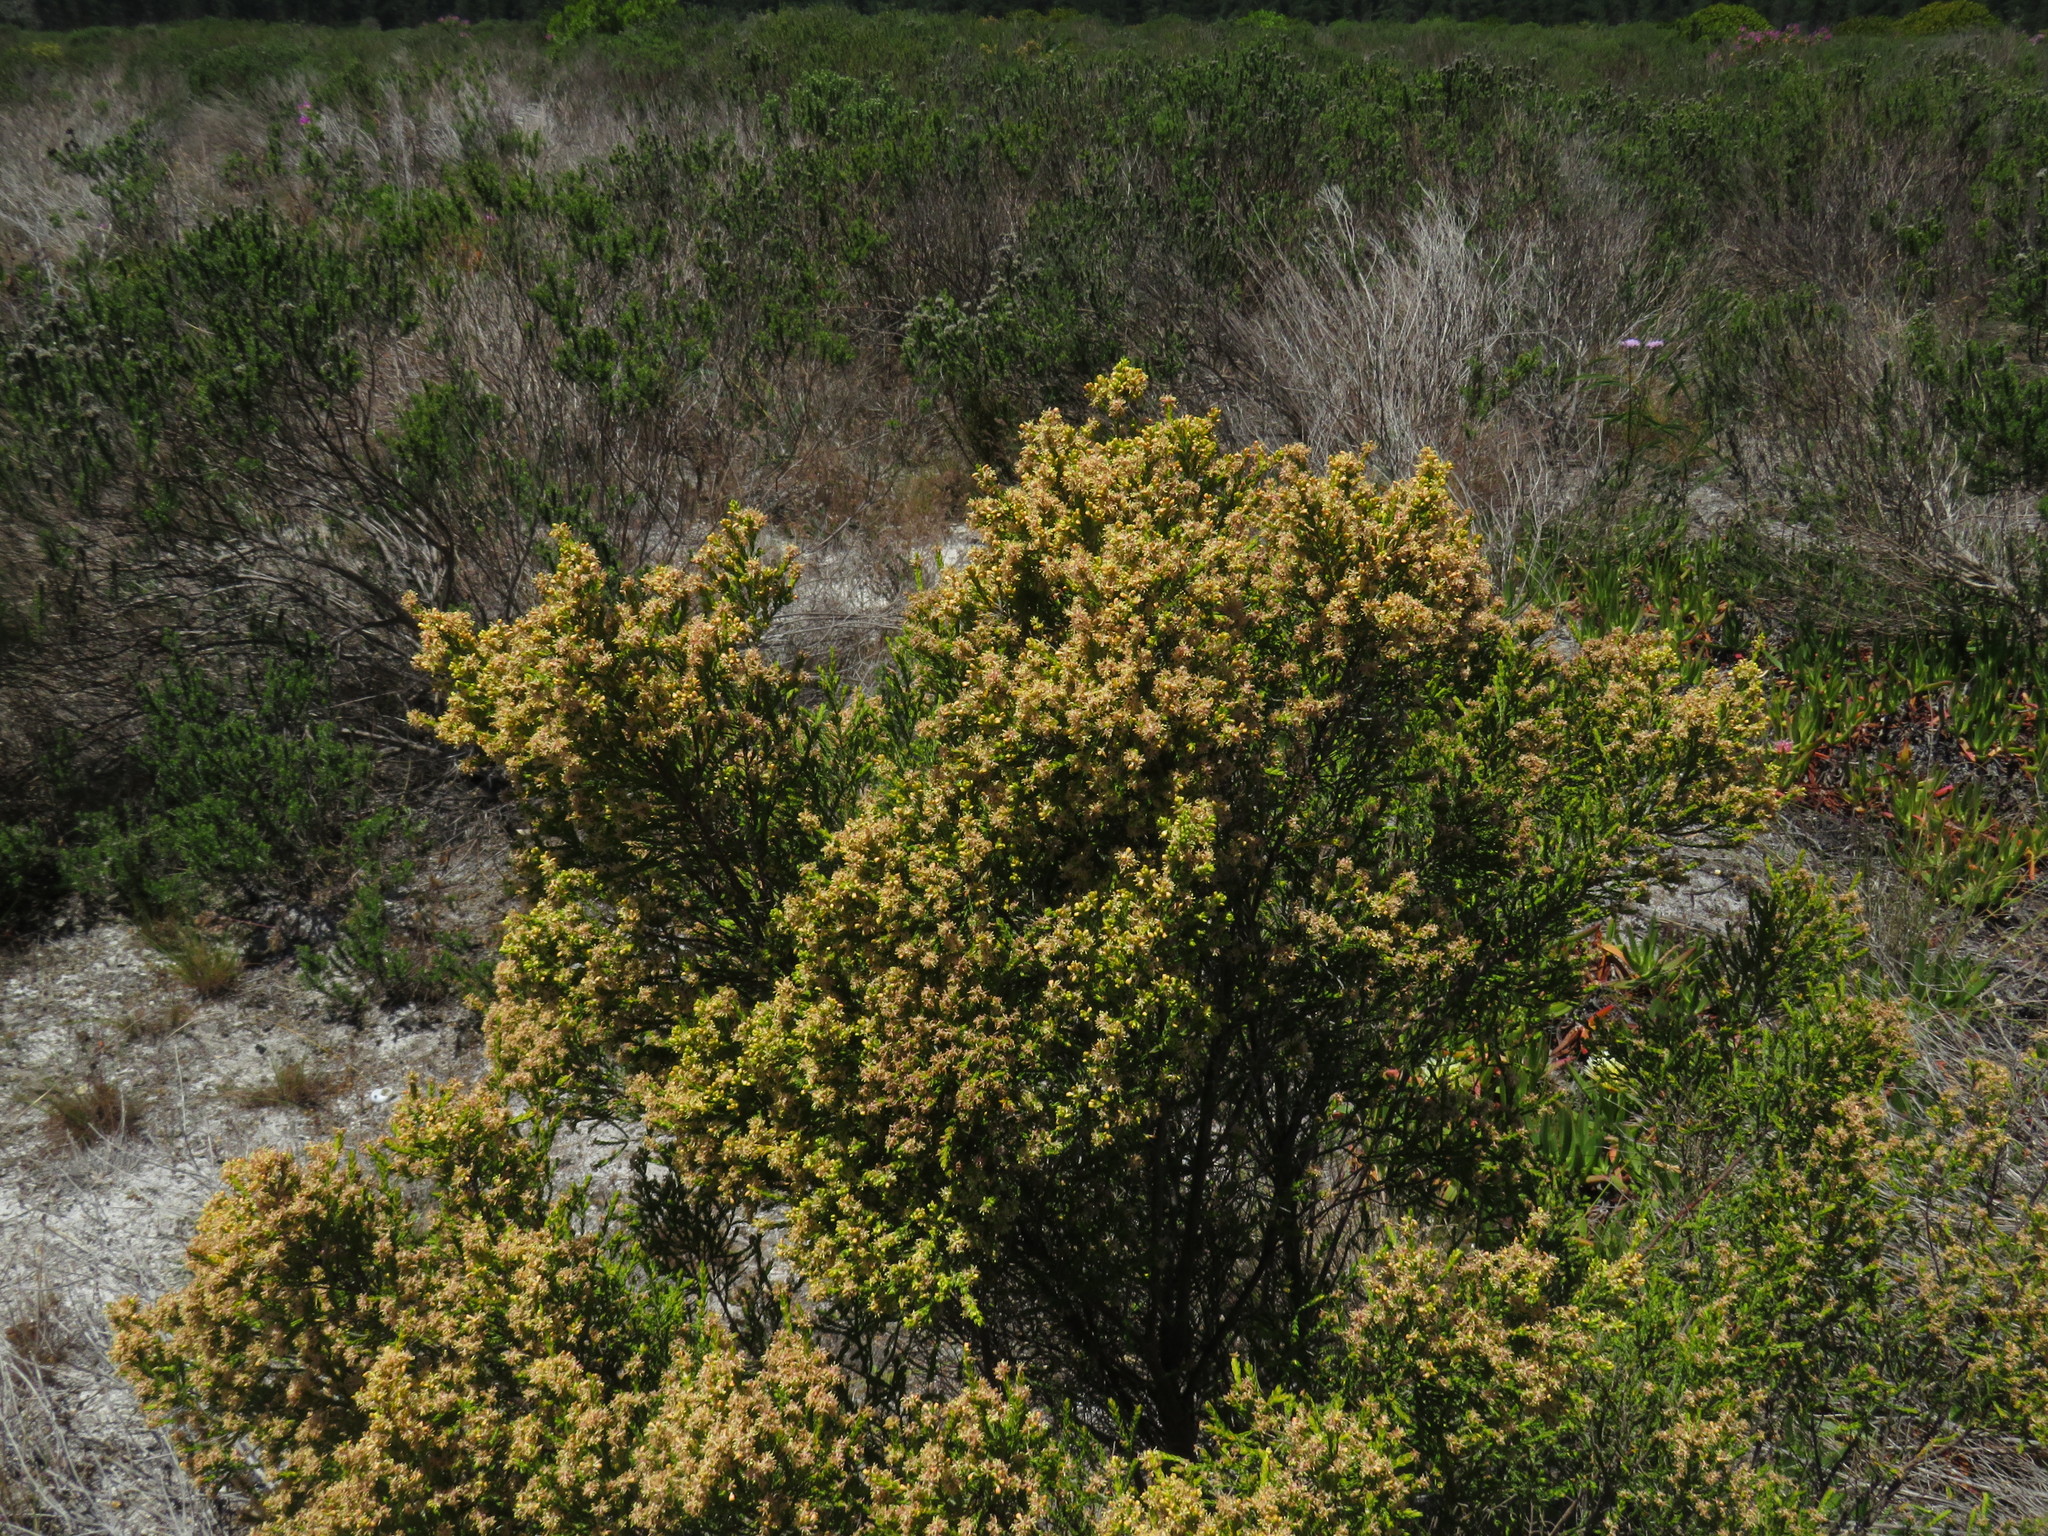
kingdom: Plantae
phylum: Tracheophyta
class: Magnoliopsida
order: Malvales
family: Thymelaeaceae
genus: Passerina
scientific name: Passerina corymbosa
